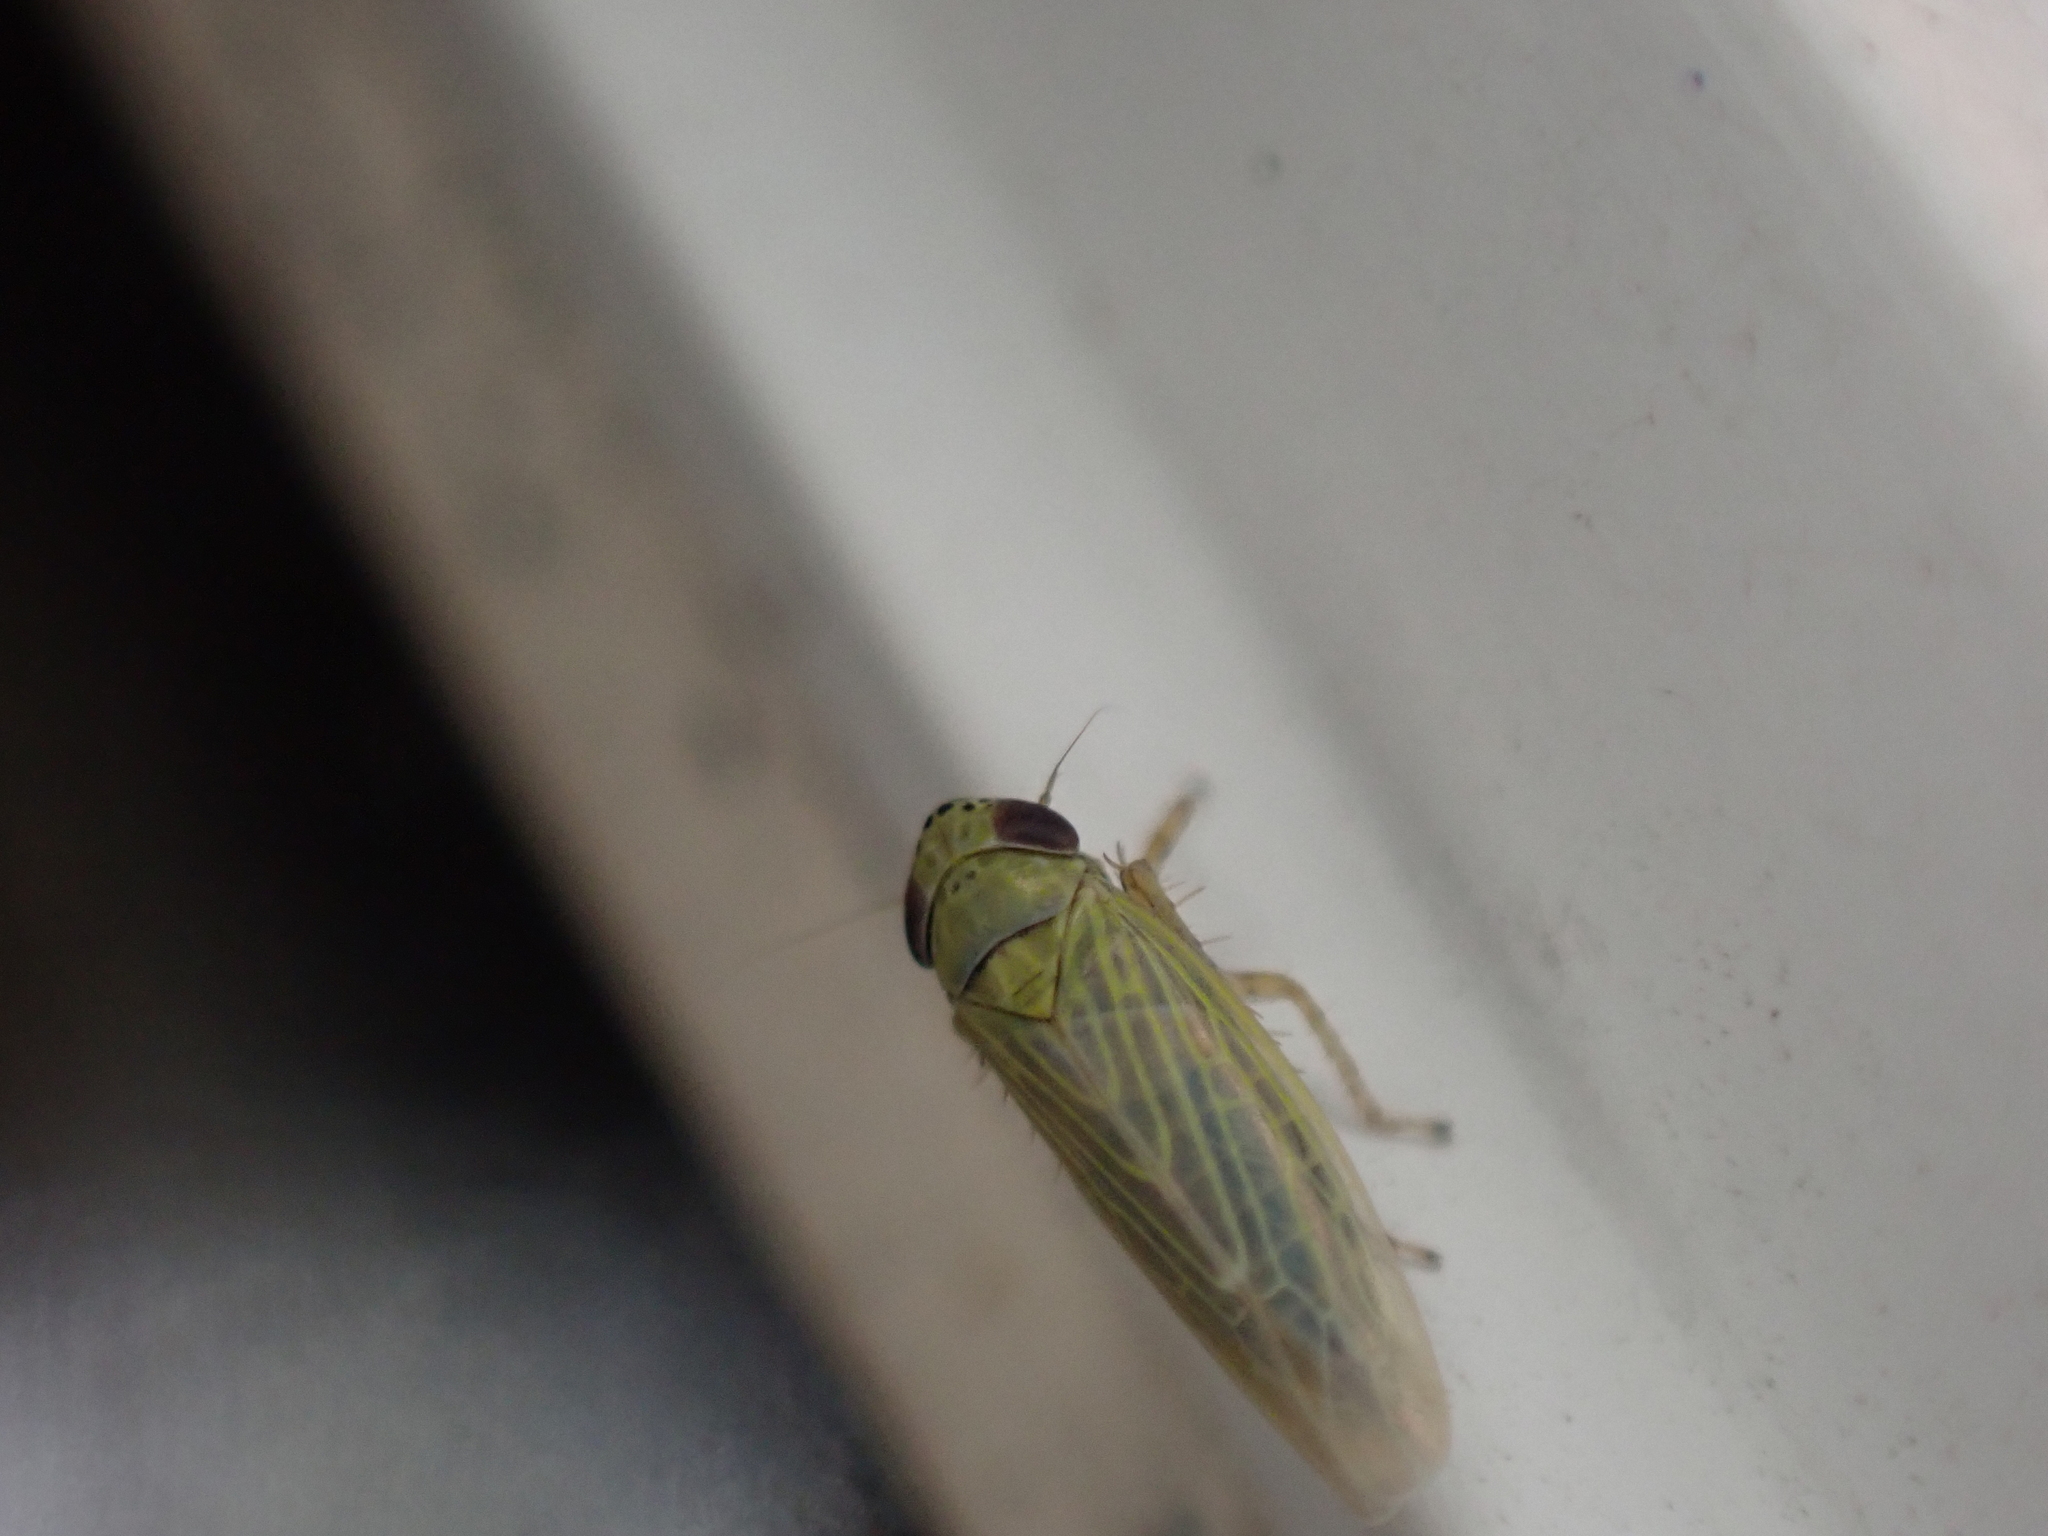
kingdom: Animalia
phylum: Arthropoda
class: Insecta
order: Hemiptera
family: Cicadellidae
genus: Graminella
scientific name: Graminella nigrifrons
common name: Blackfaced leafhopper
